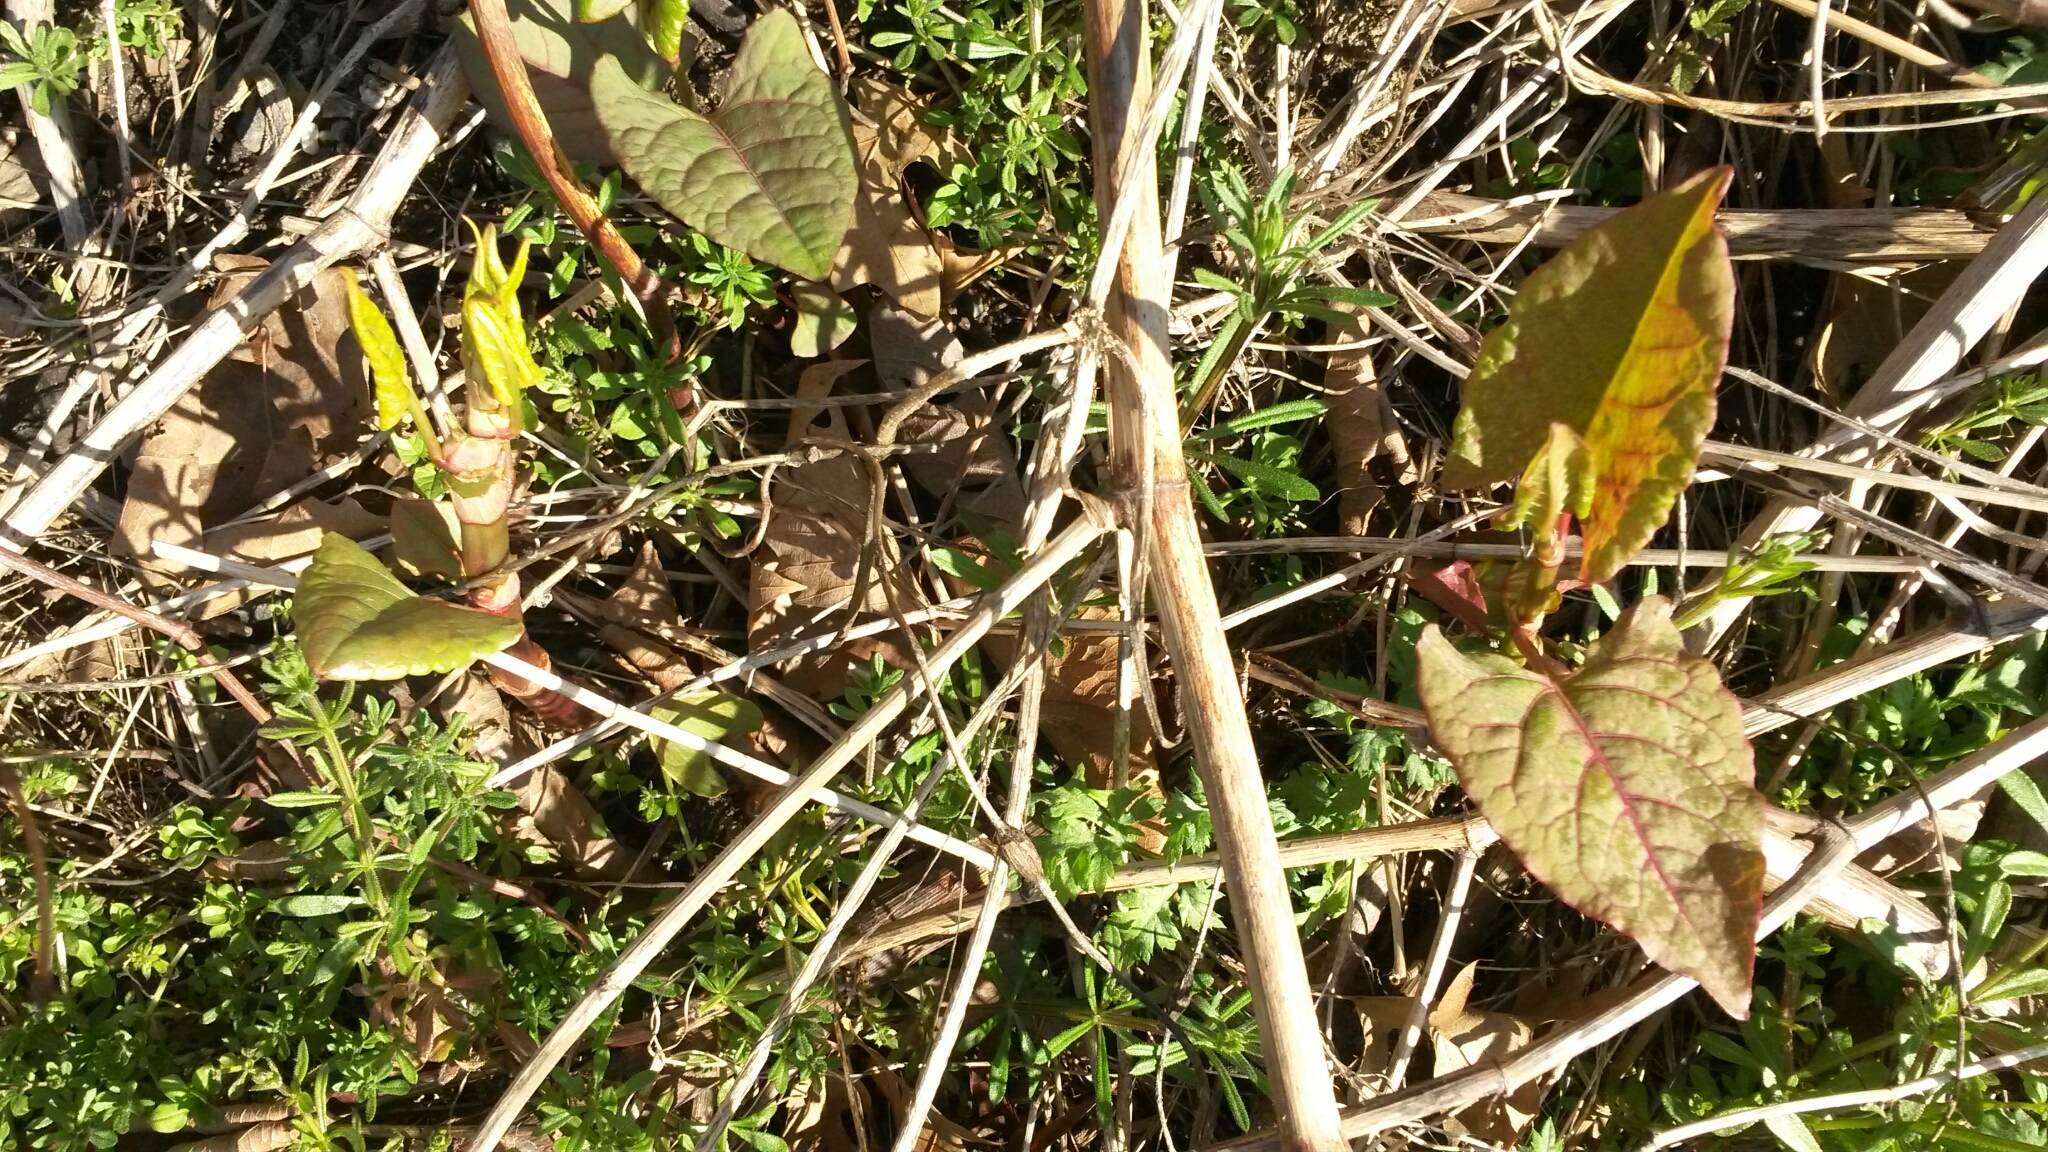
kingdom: Plantae
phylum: Tracheophyta
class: Magnoliopsida
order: Caryophyllales
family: Polygonaceae
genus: Reynoutria
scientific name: Reynoutria japonica
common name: Japanese knotweed
